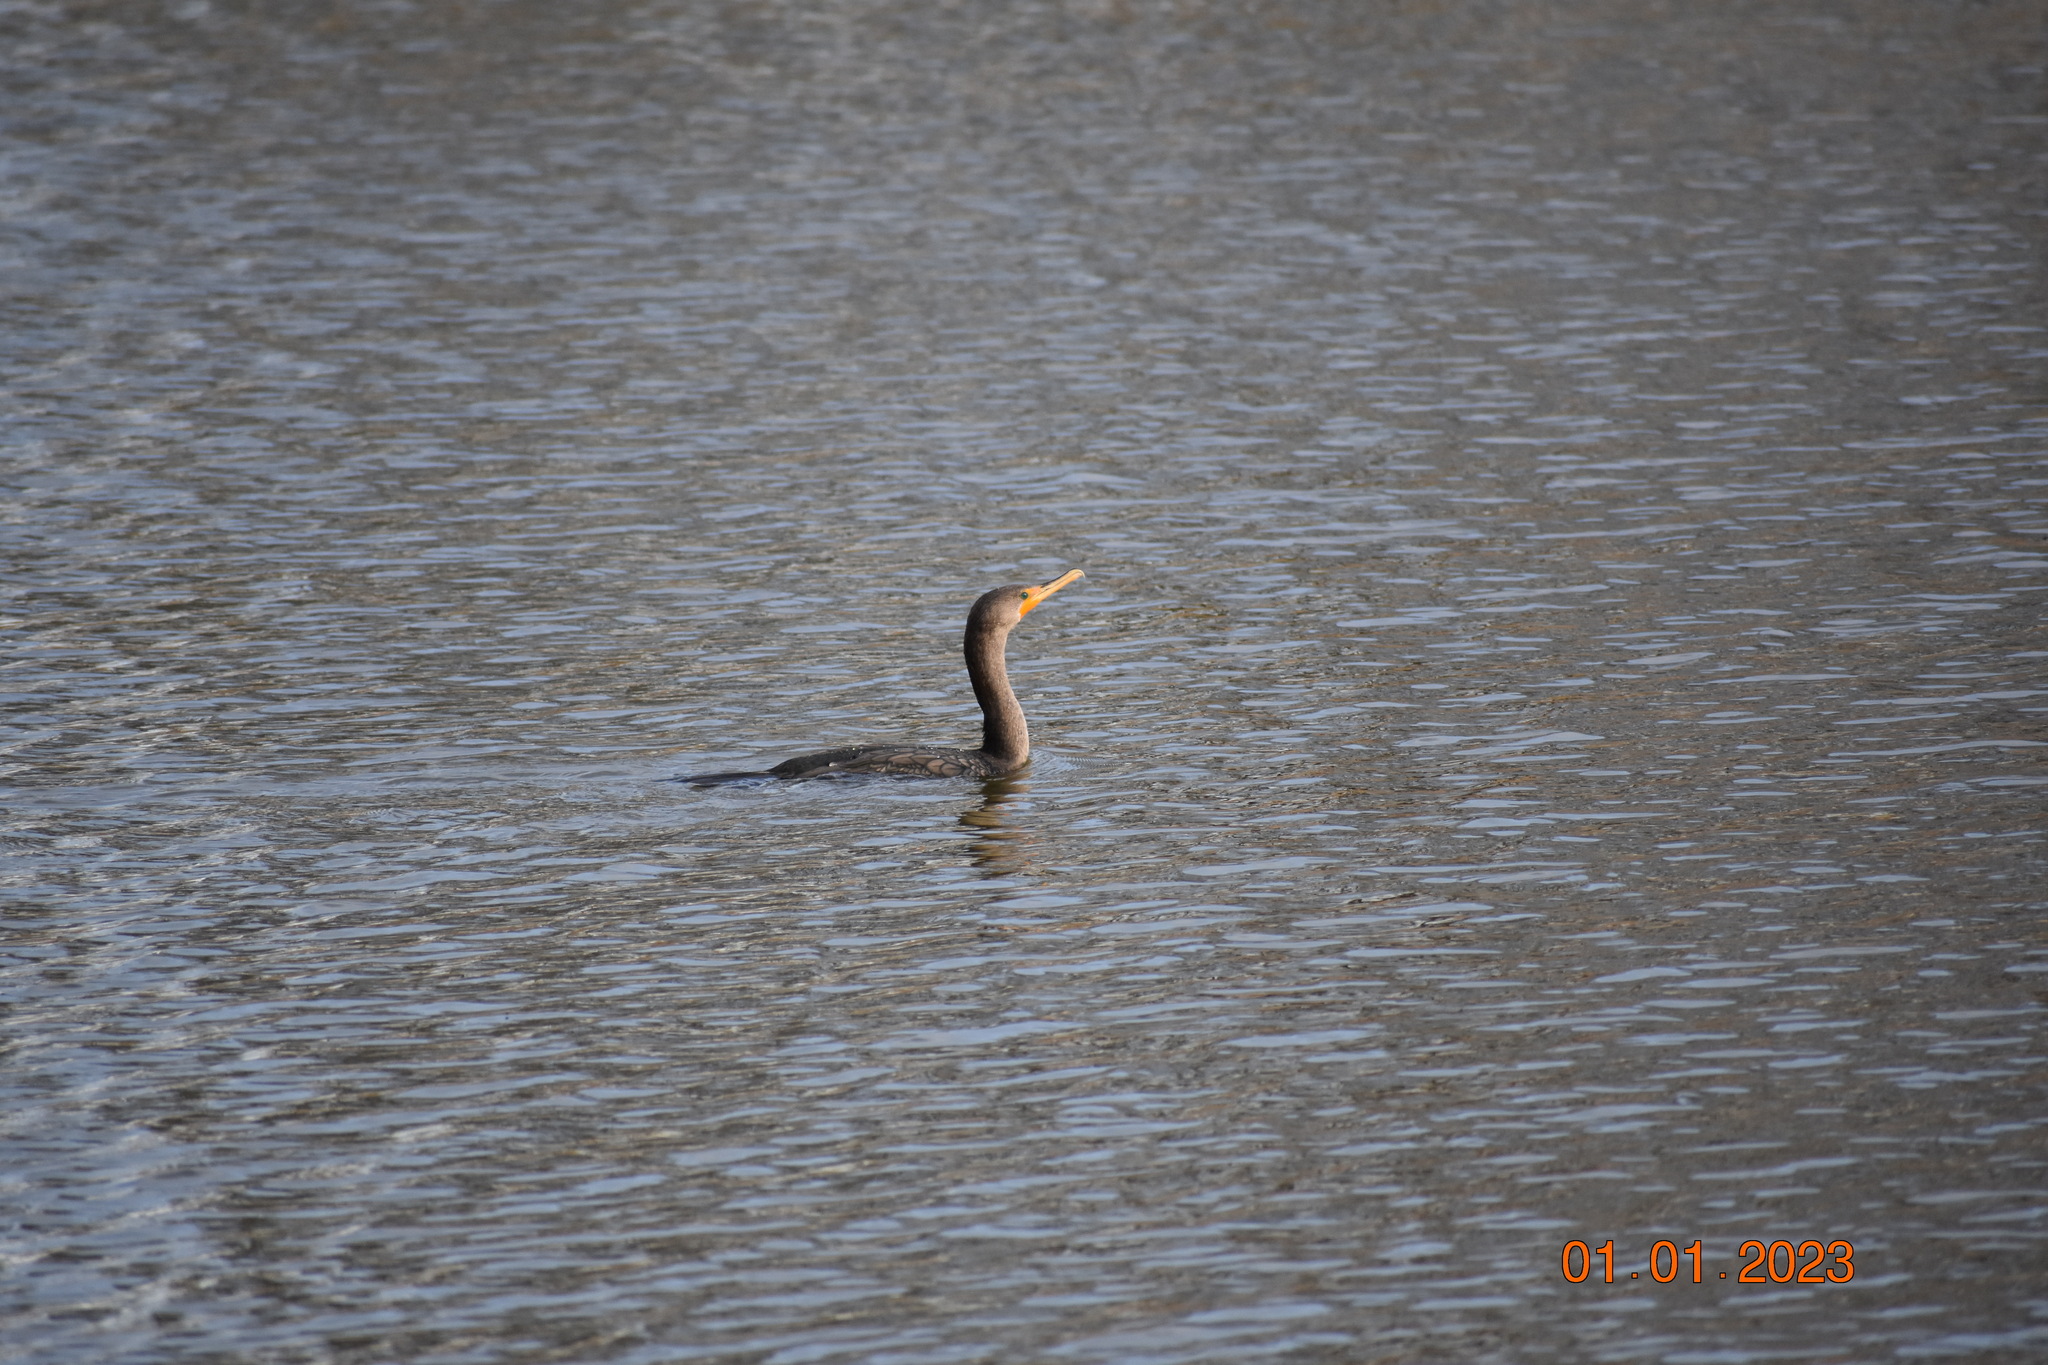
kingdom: Animalia
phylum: Chordata
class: Aves
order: Suliformes
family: Phalacrocoracidae
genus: Phalacrocorax
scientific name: Phalacrocorax auritus
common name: Double-crested cormorant
